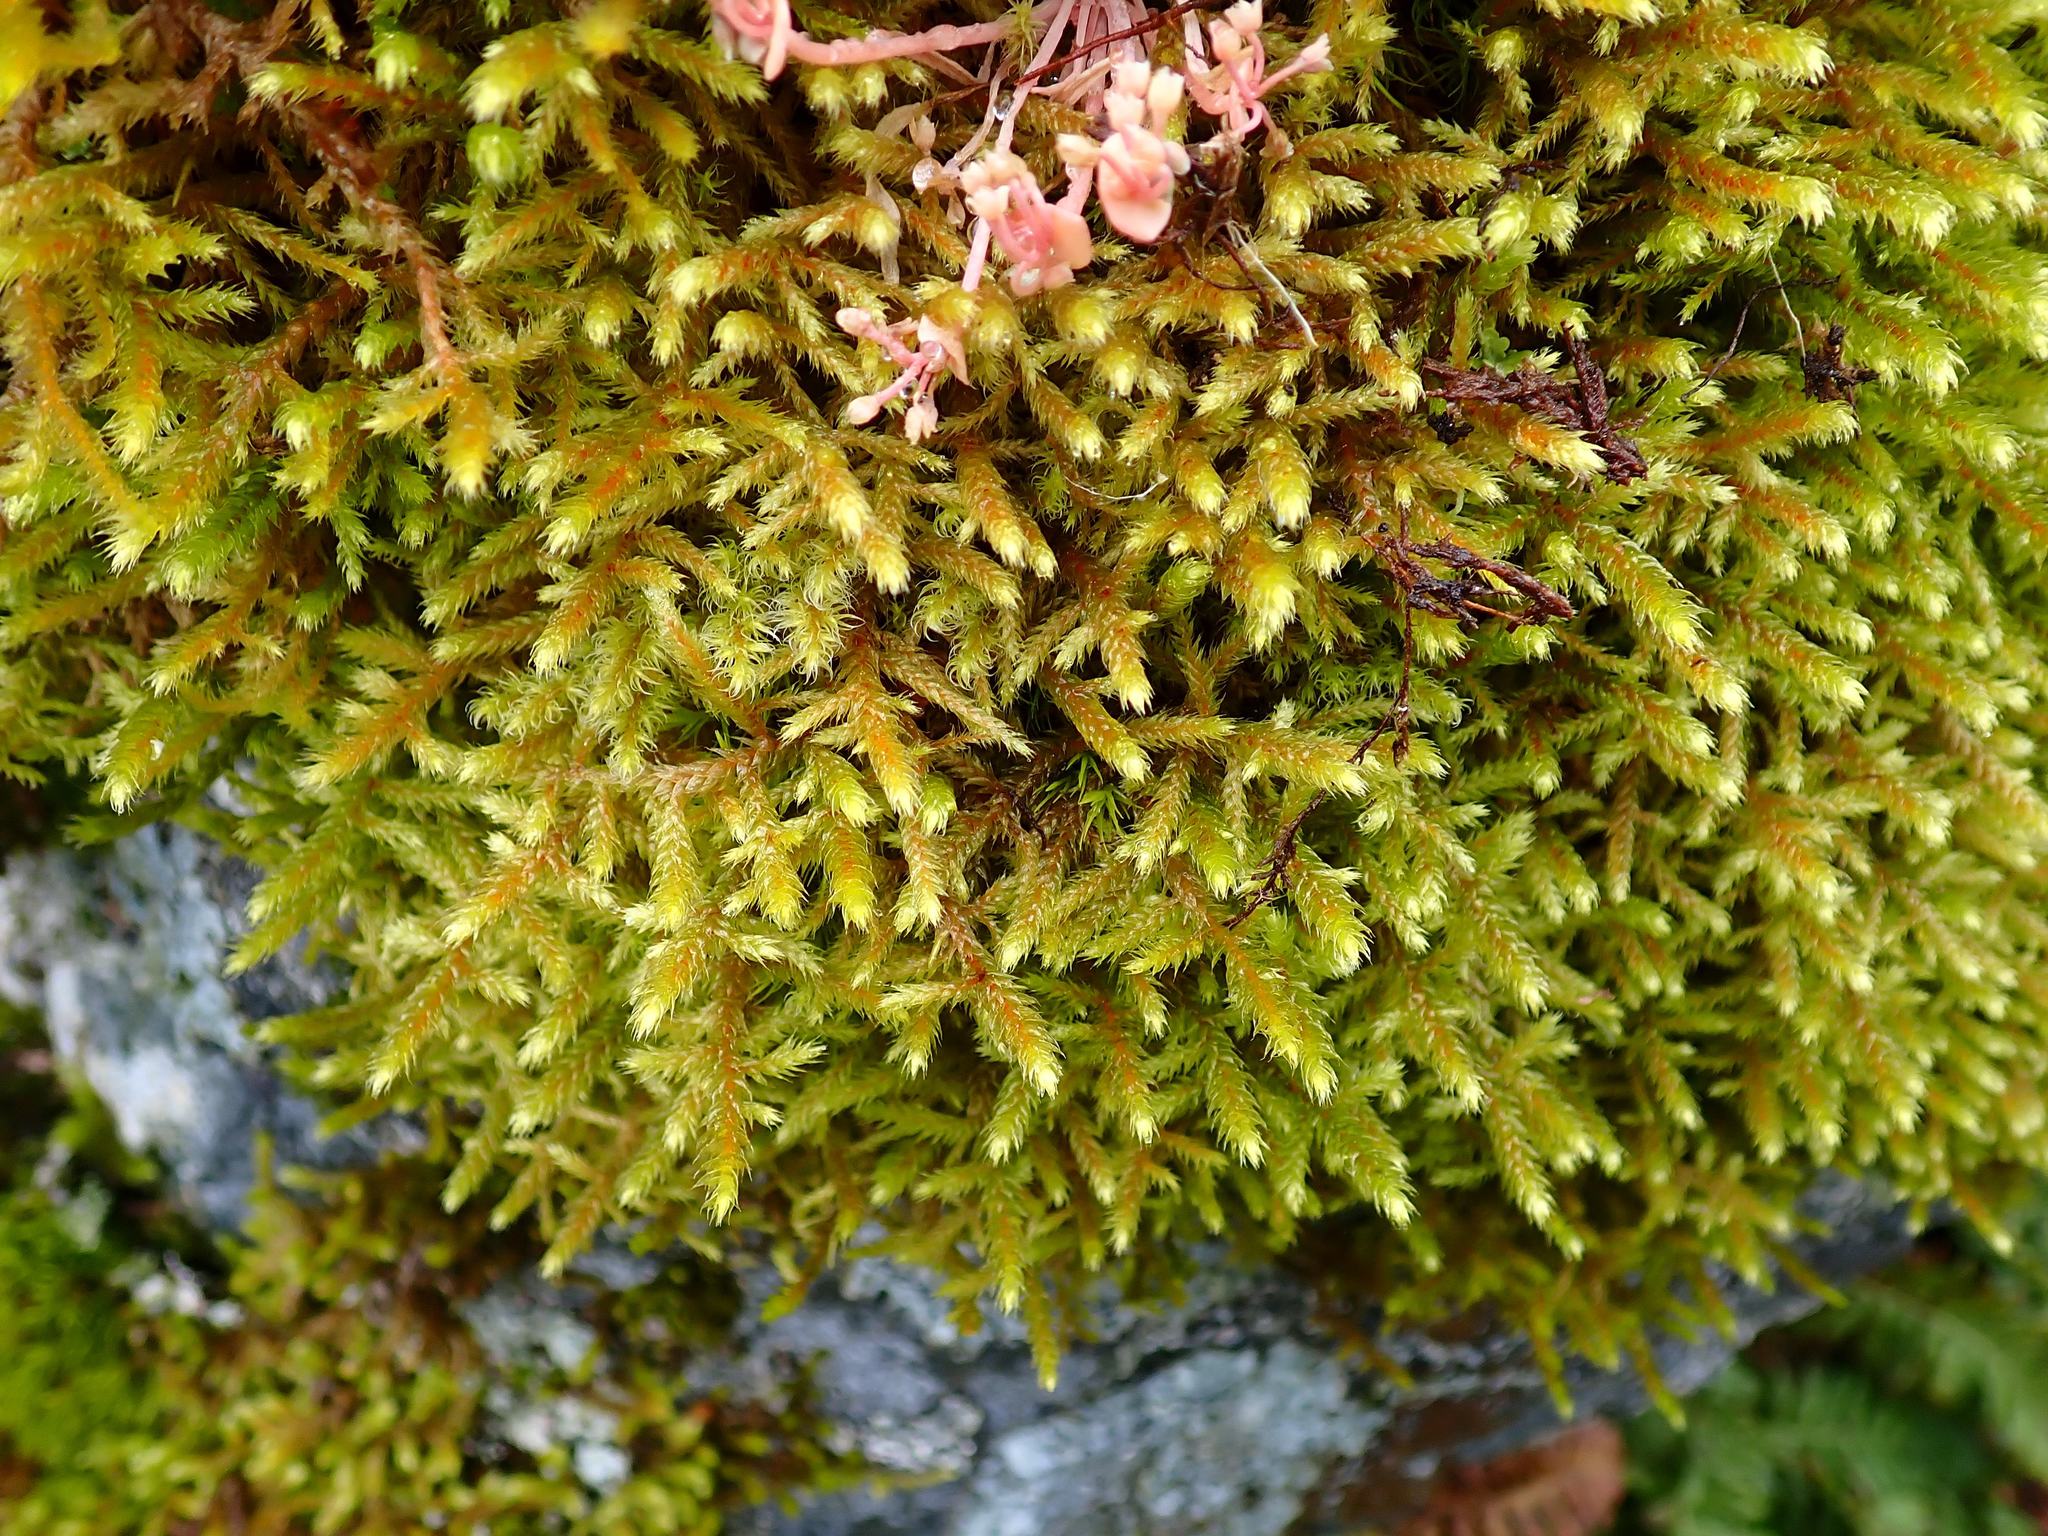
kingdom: Plantae
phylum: Bryophyta
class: Bryopsida
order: Hypnales
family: Antitrichiaceae
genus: Antitrichia
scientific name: Antitrichia curtipendula
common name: Pendulous wing-moss
